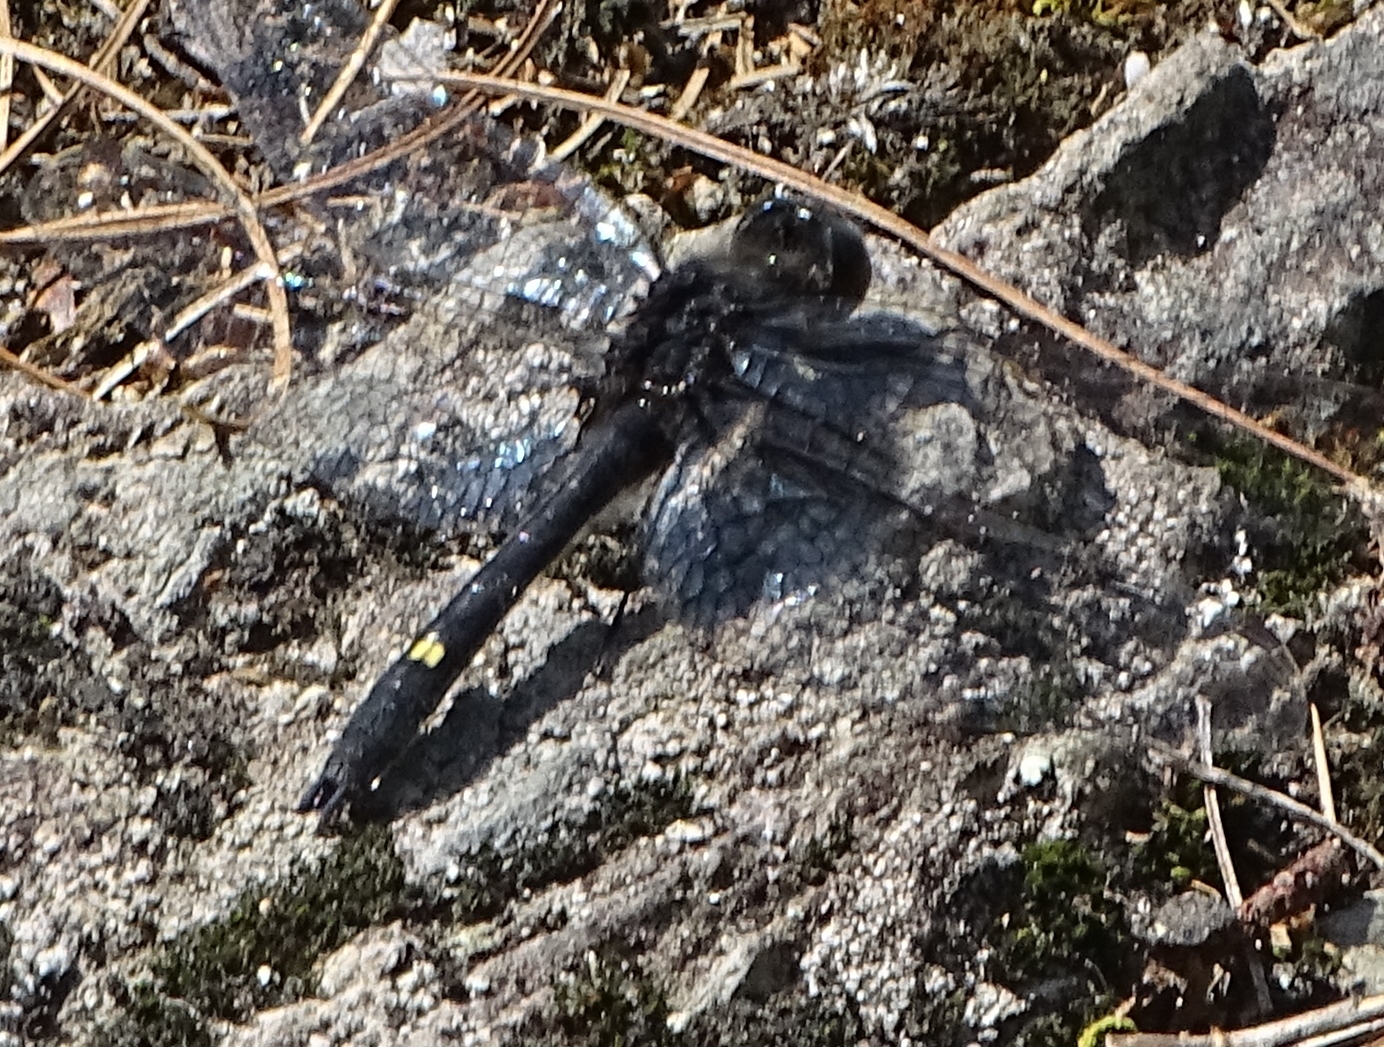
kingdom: Animalia
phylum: Arthropoda
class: Insecta
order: Odonata
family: Libellulidae
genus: Leucorrhinia
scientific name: Leucorrhinia intacta
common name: Dot-tailed whiteface
